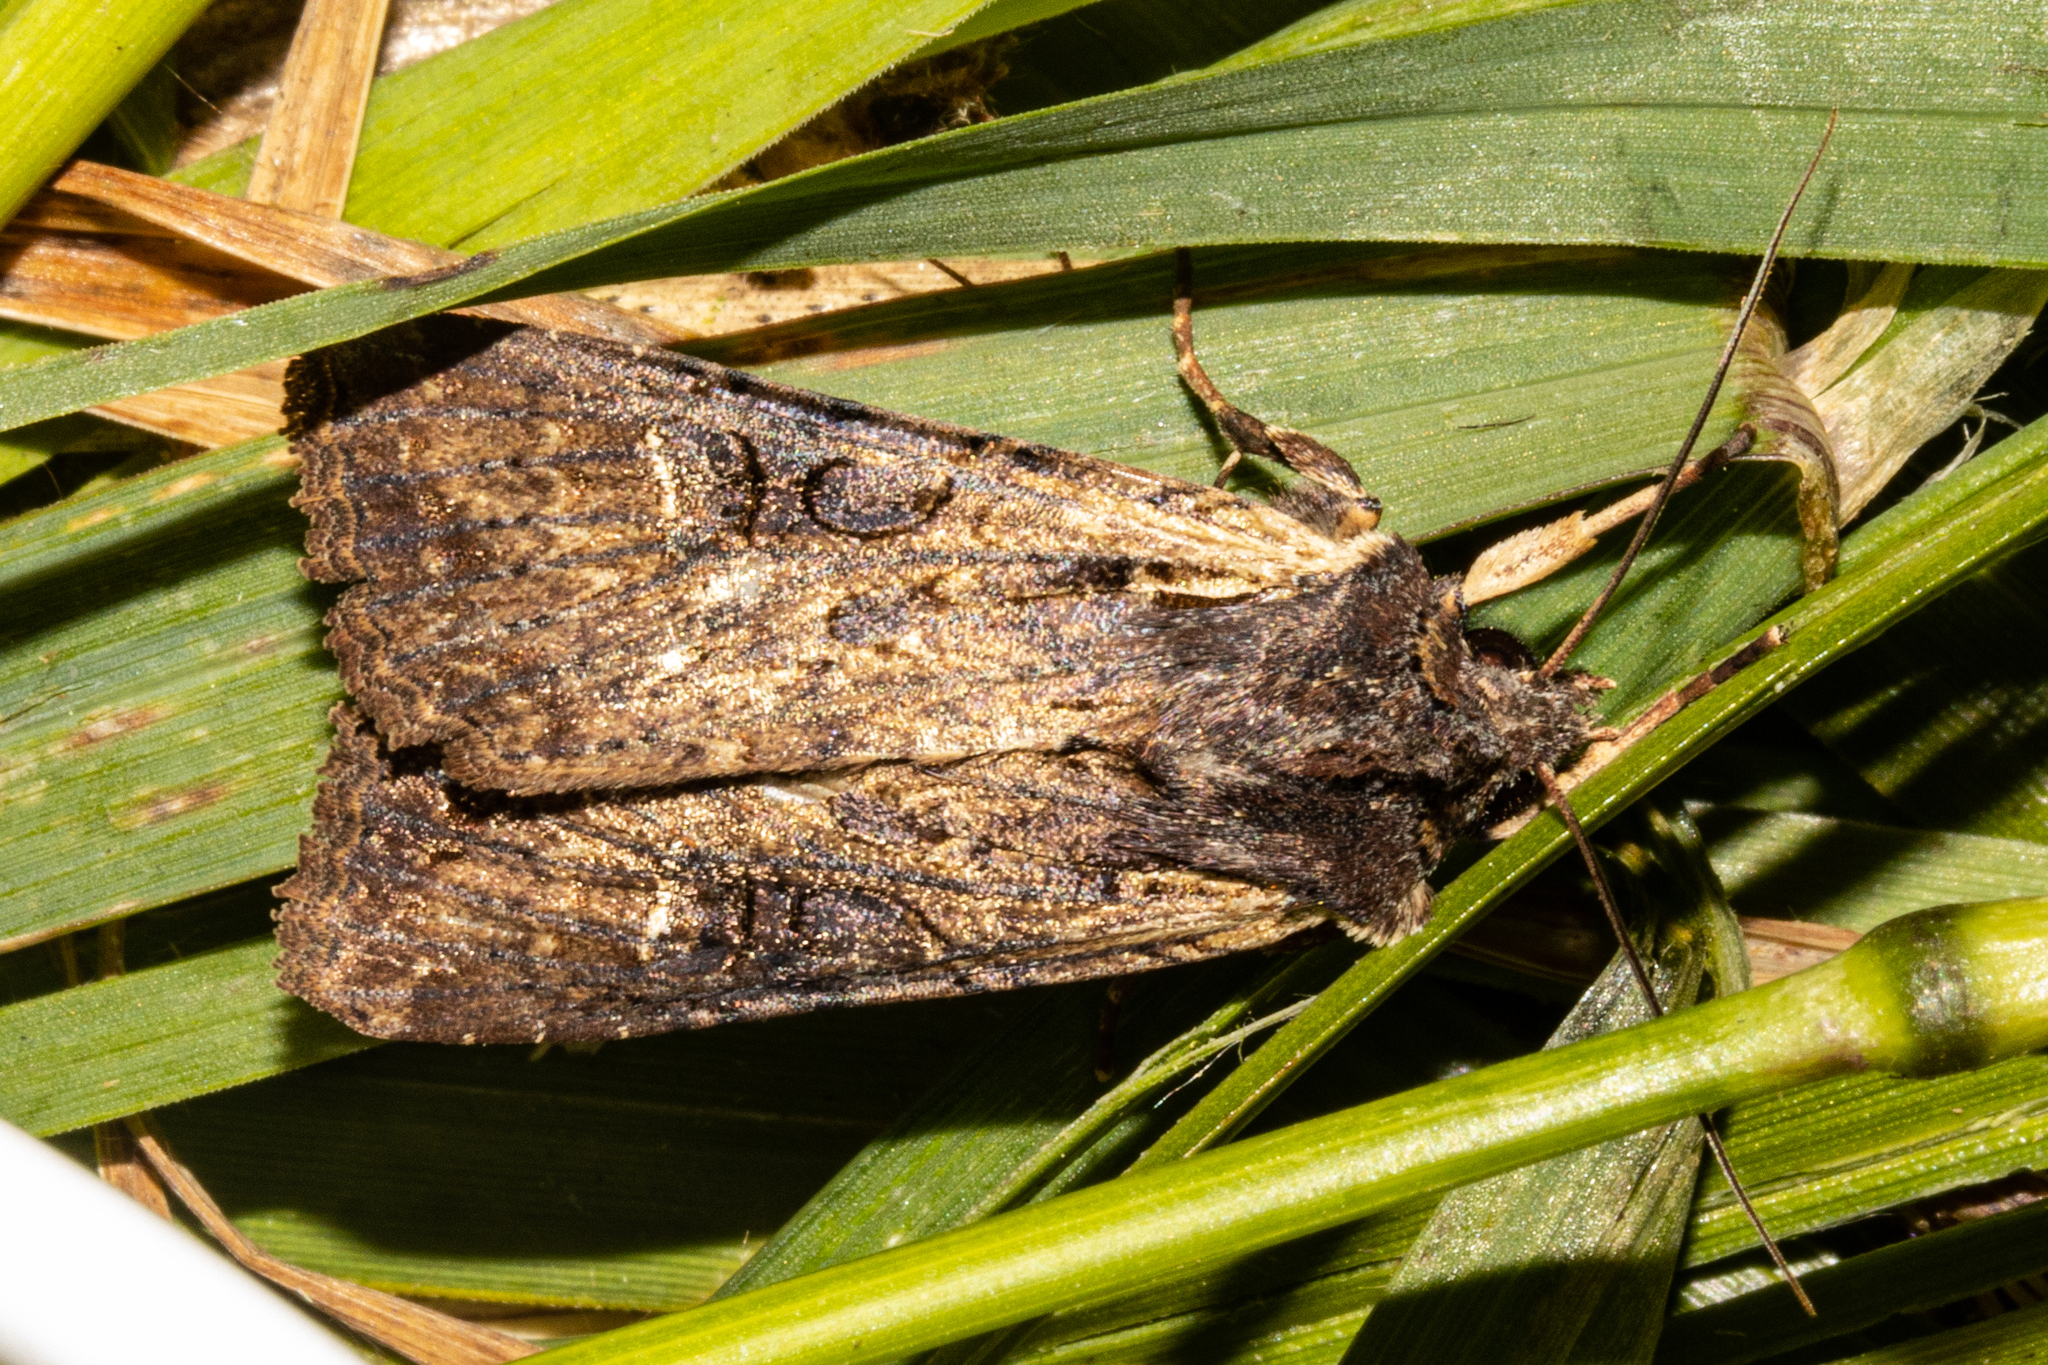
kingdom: Animalia
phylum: Arthropoda
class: Insecta
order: Lepidoptera
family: Noctuidae
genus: Ichneutica
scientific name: Ichneutica omoplaca
